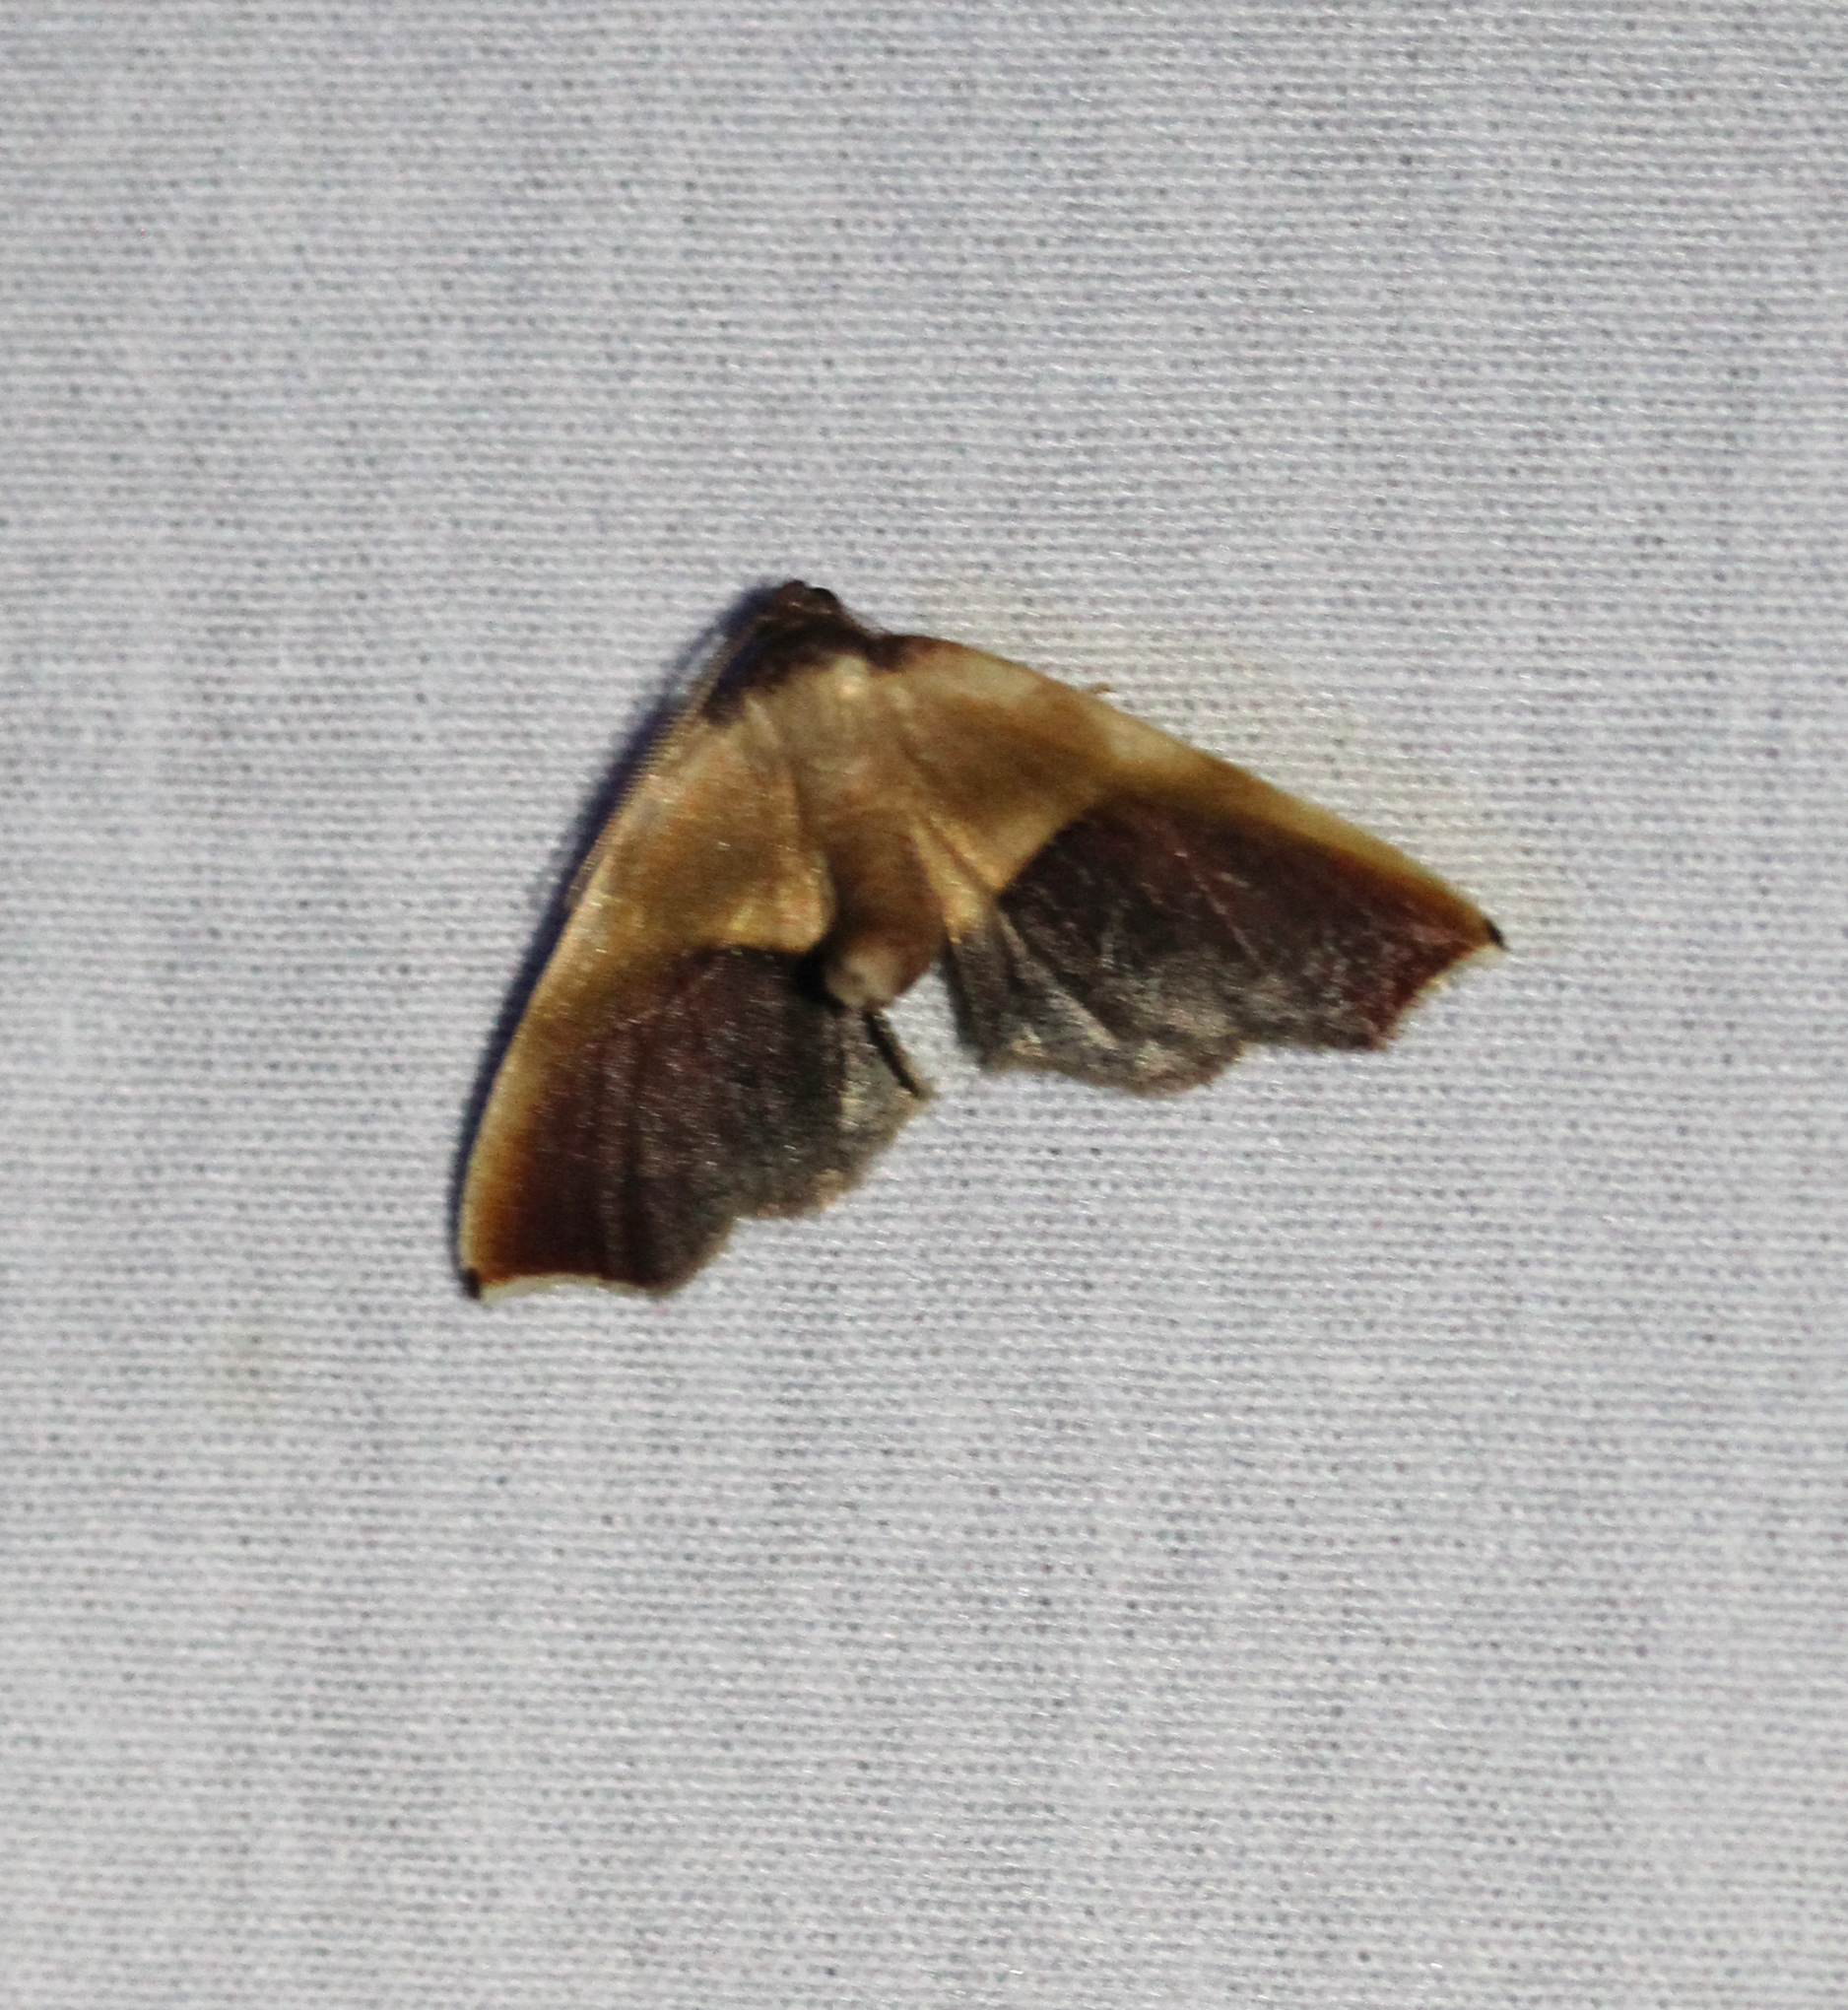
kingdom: Animalia
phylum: Arthropoda
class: Insecta
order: Lepidoptera
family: Geometridae
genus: Plagodis
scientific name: Plagodis kuetzingi
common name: Purple plagodis
